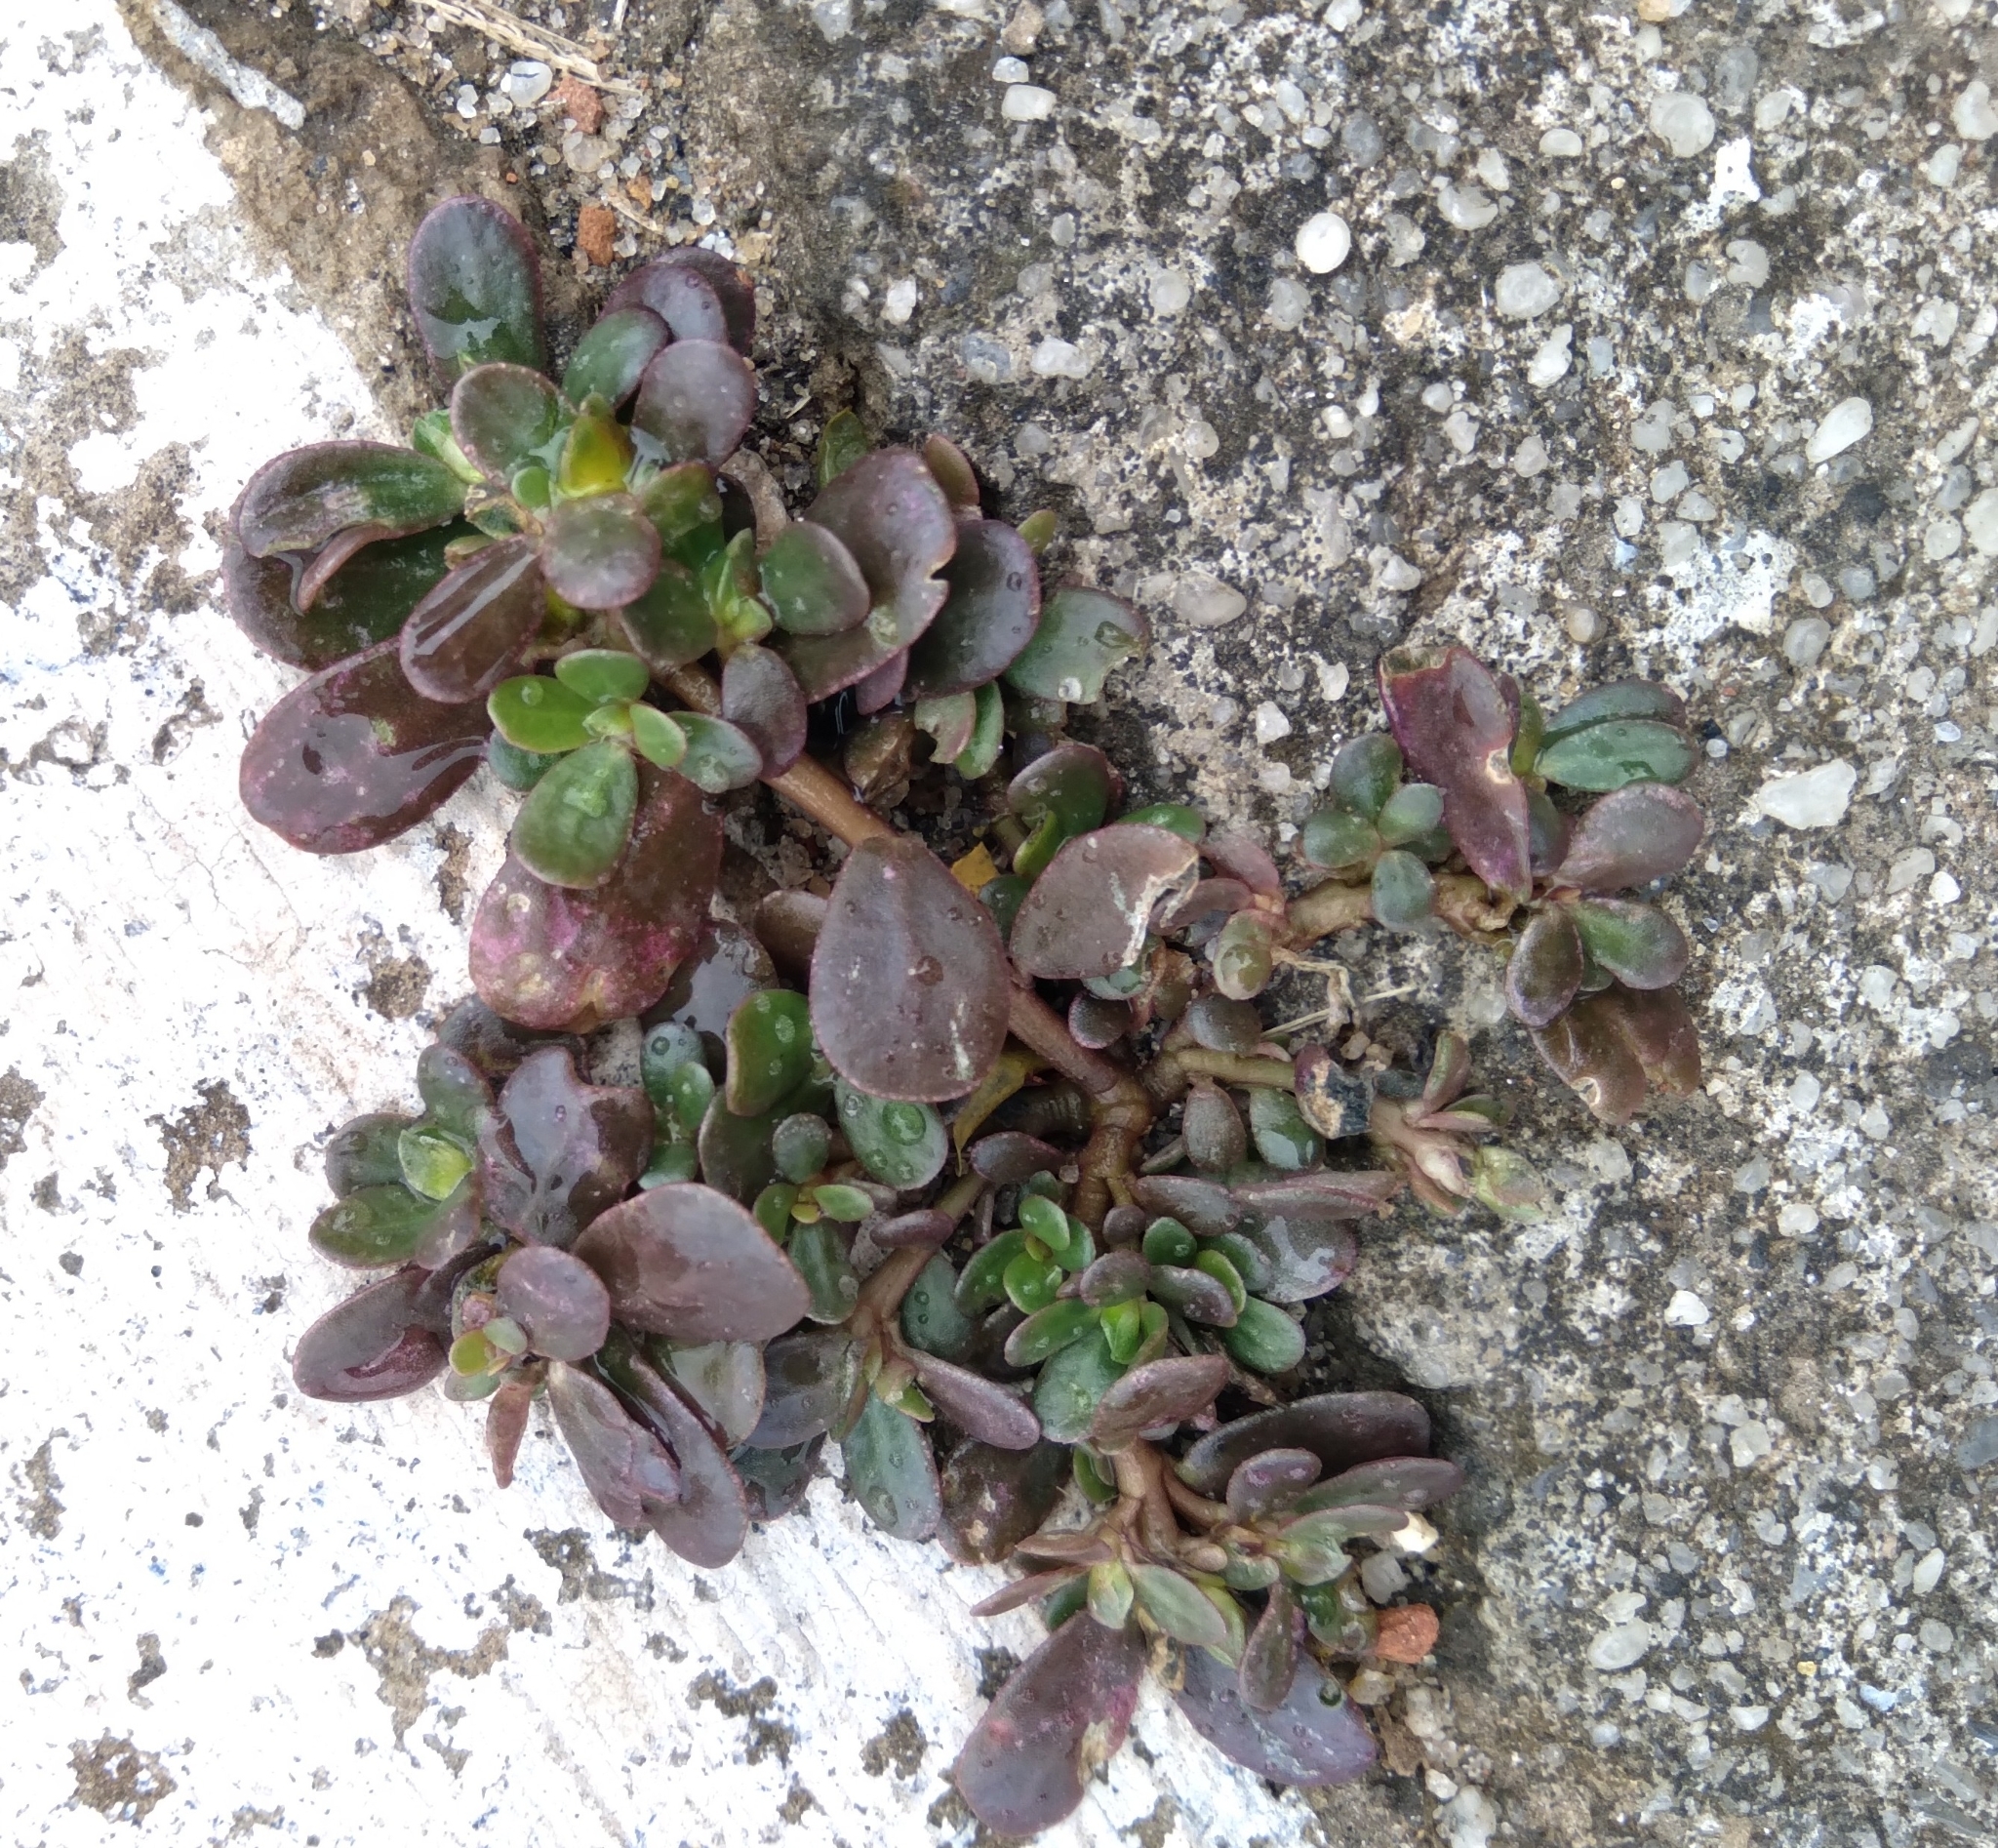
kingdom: Plantae
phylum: Tracheophyta
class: Magnoliopsida
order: Caryophyllales
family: Portulacaceae
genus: Portulaca
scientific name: Portulaca oleracea
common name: Common purslane
